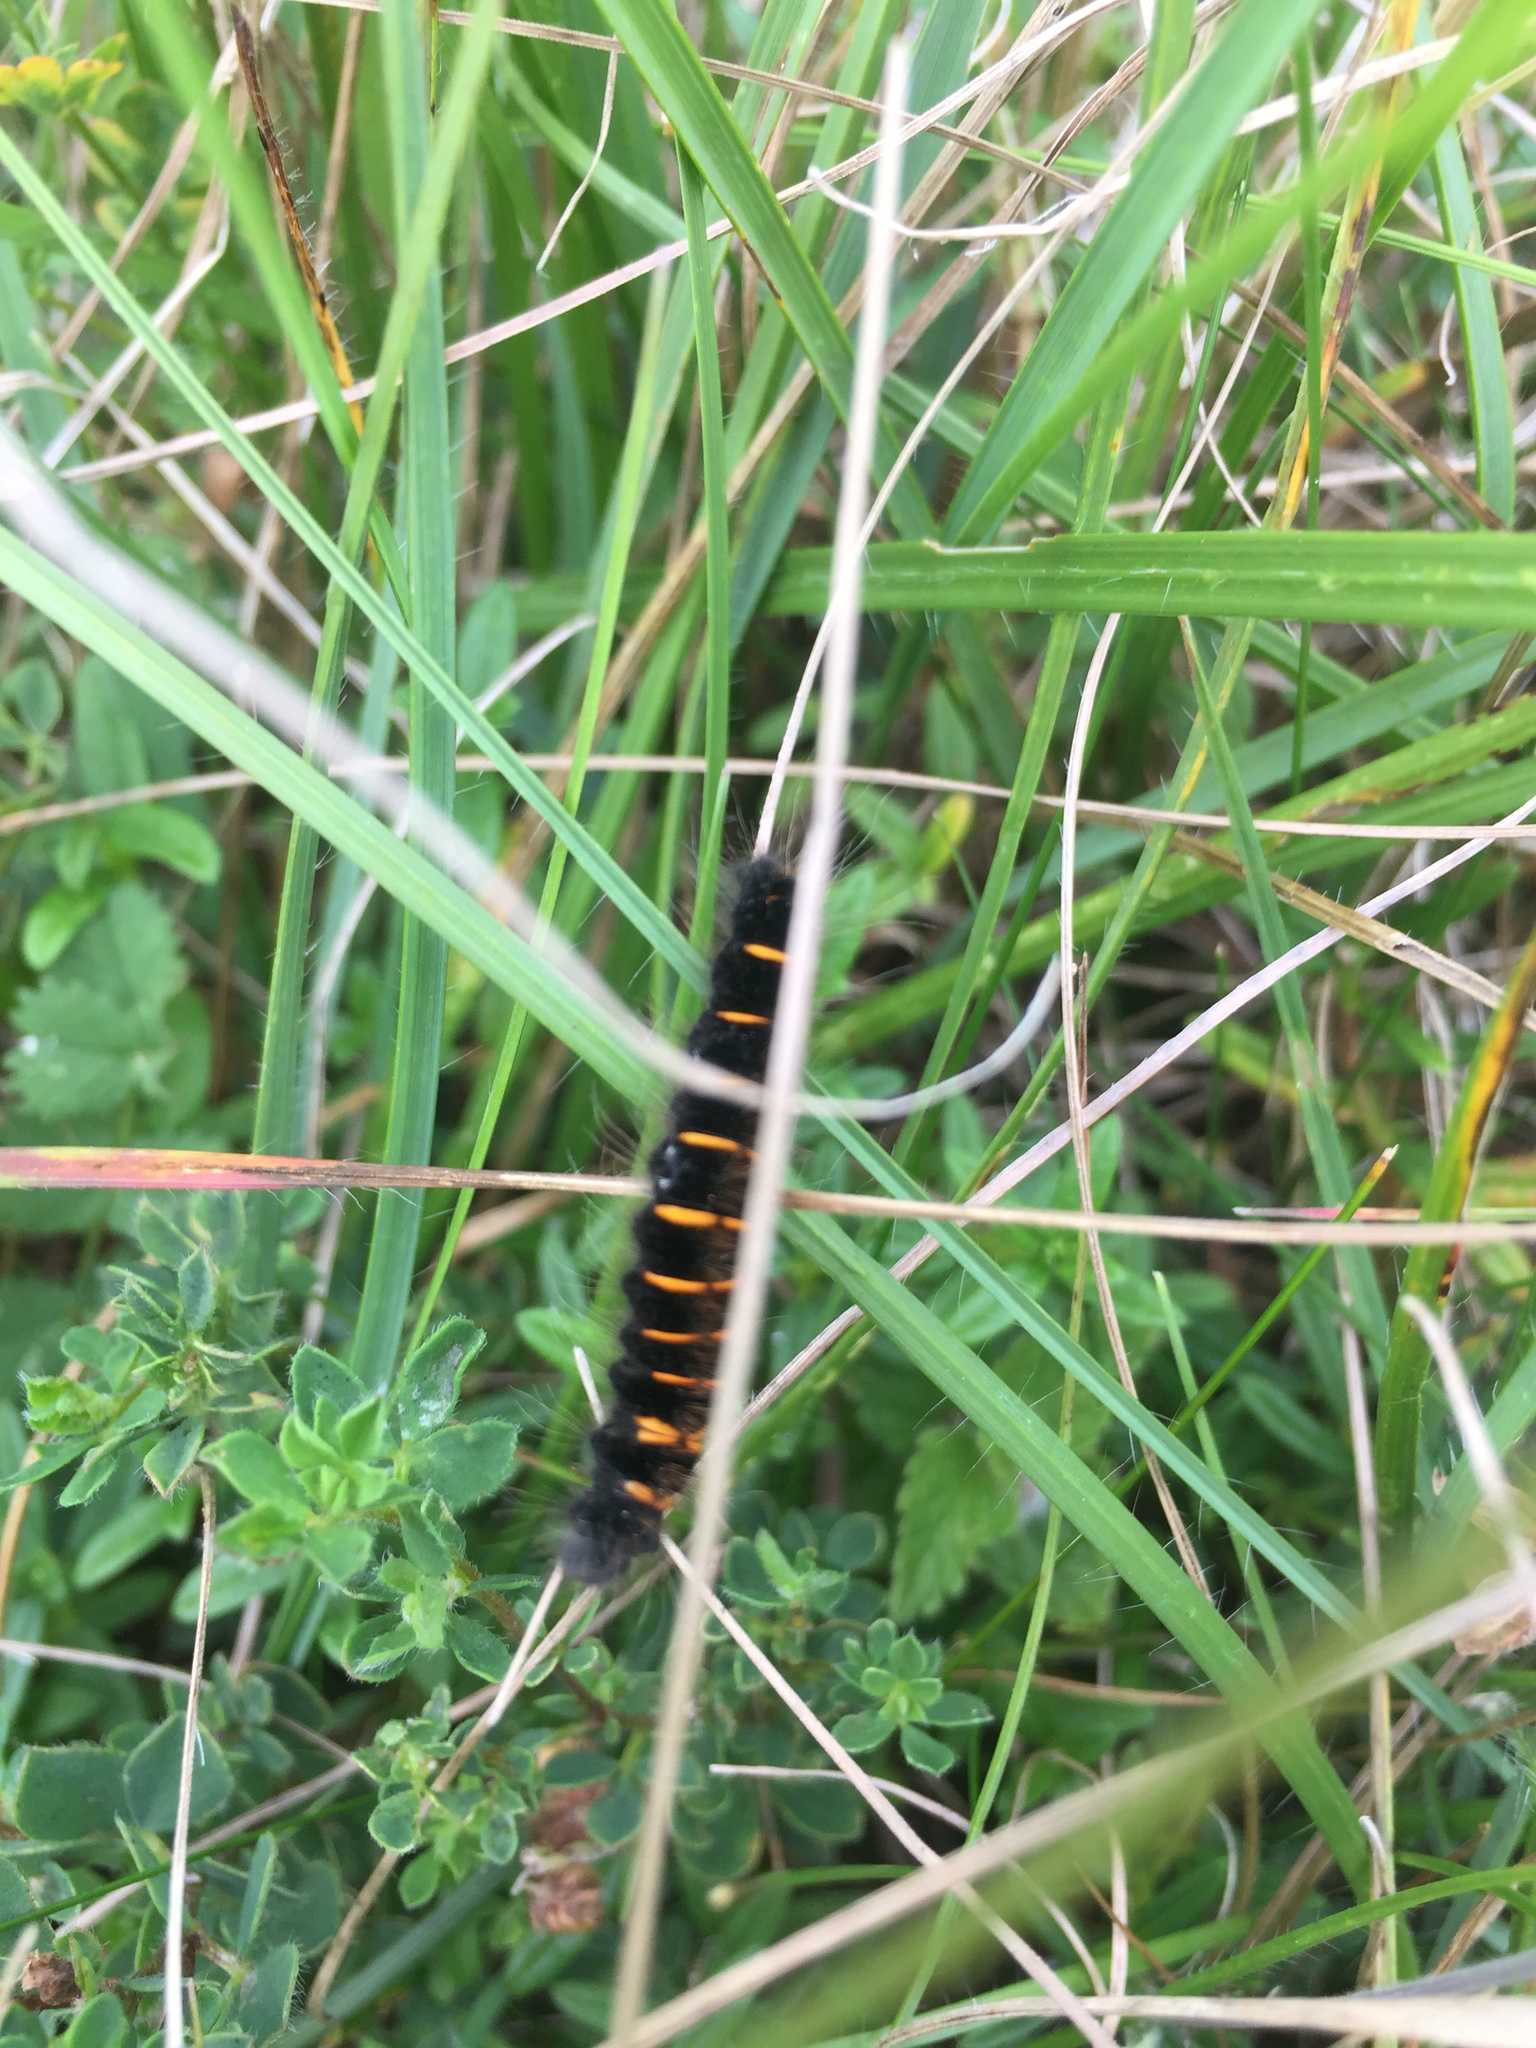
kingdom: Animalia
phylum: Arthropoda
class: Insecta
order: Lepidoptera
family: Lasiocampidae
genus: Macrothylacia
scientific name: Macrothylacia rubi
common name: Fox moth
